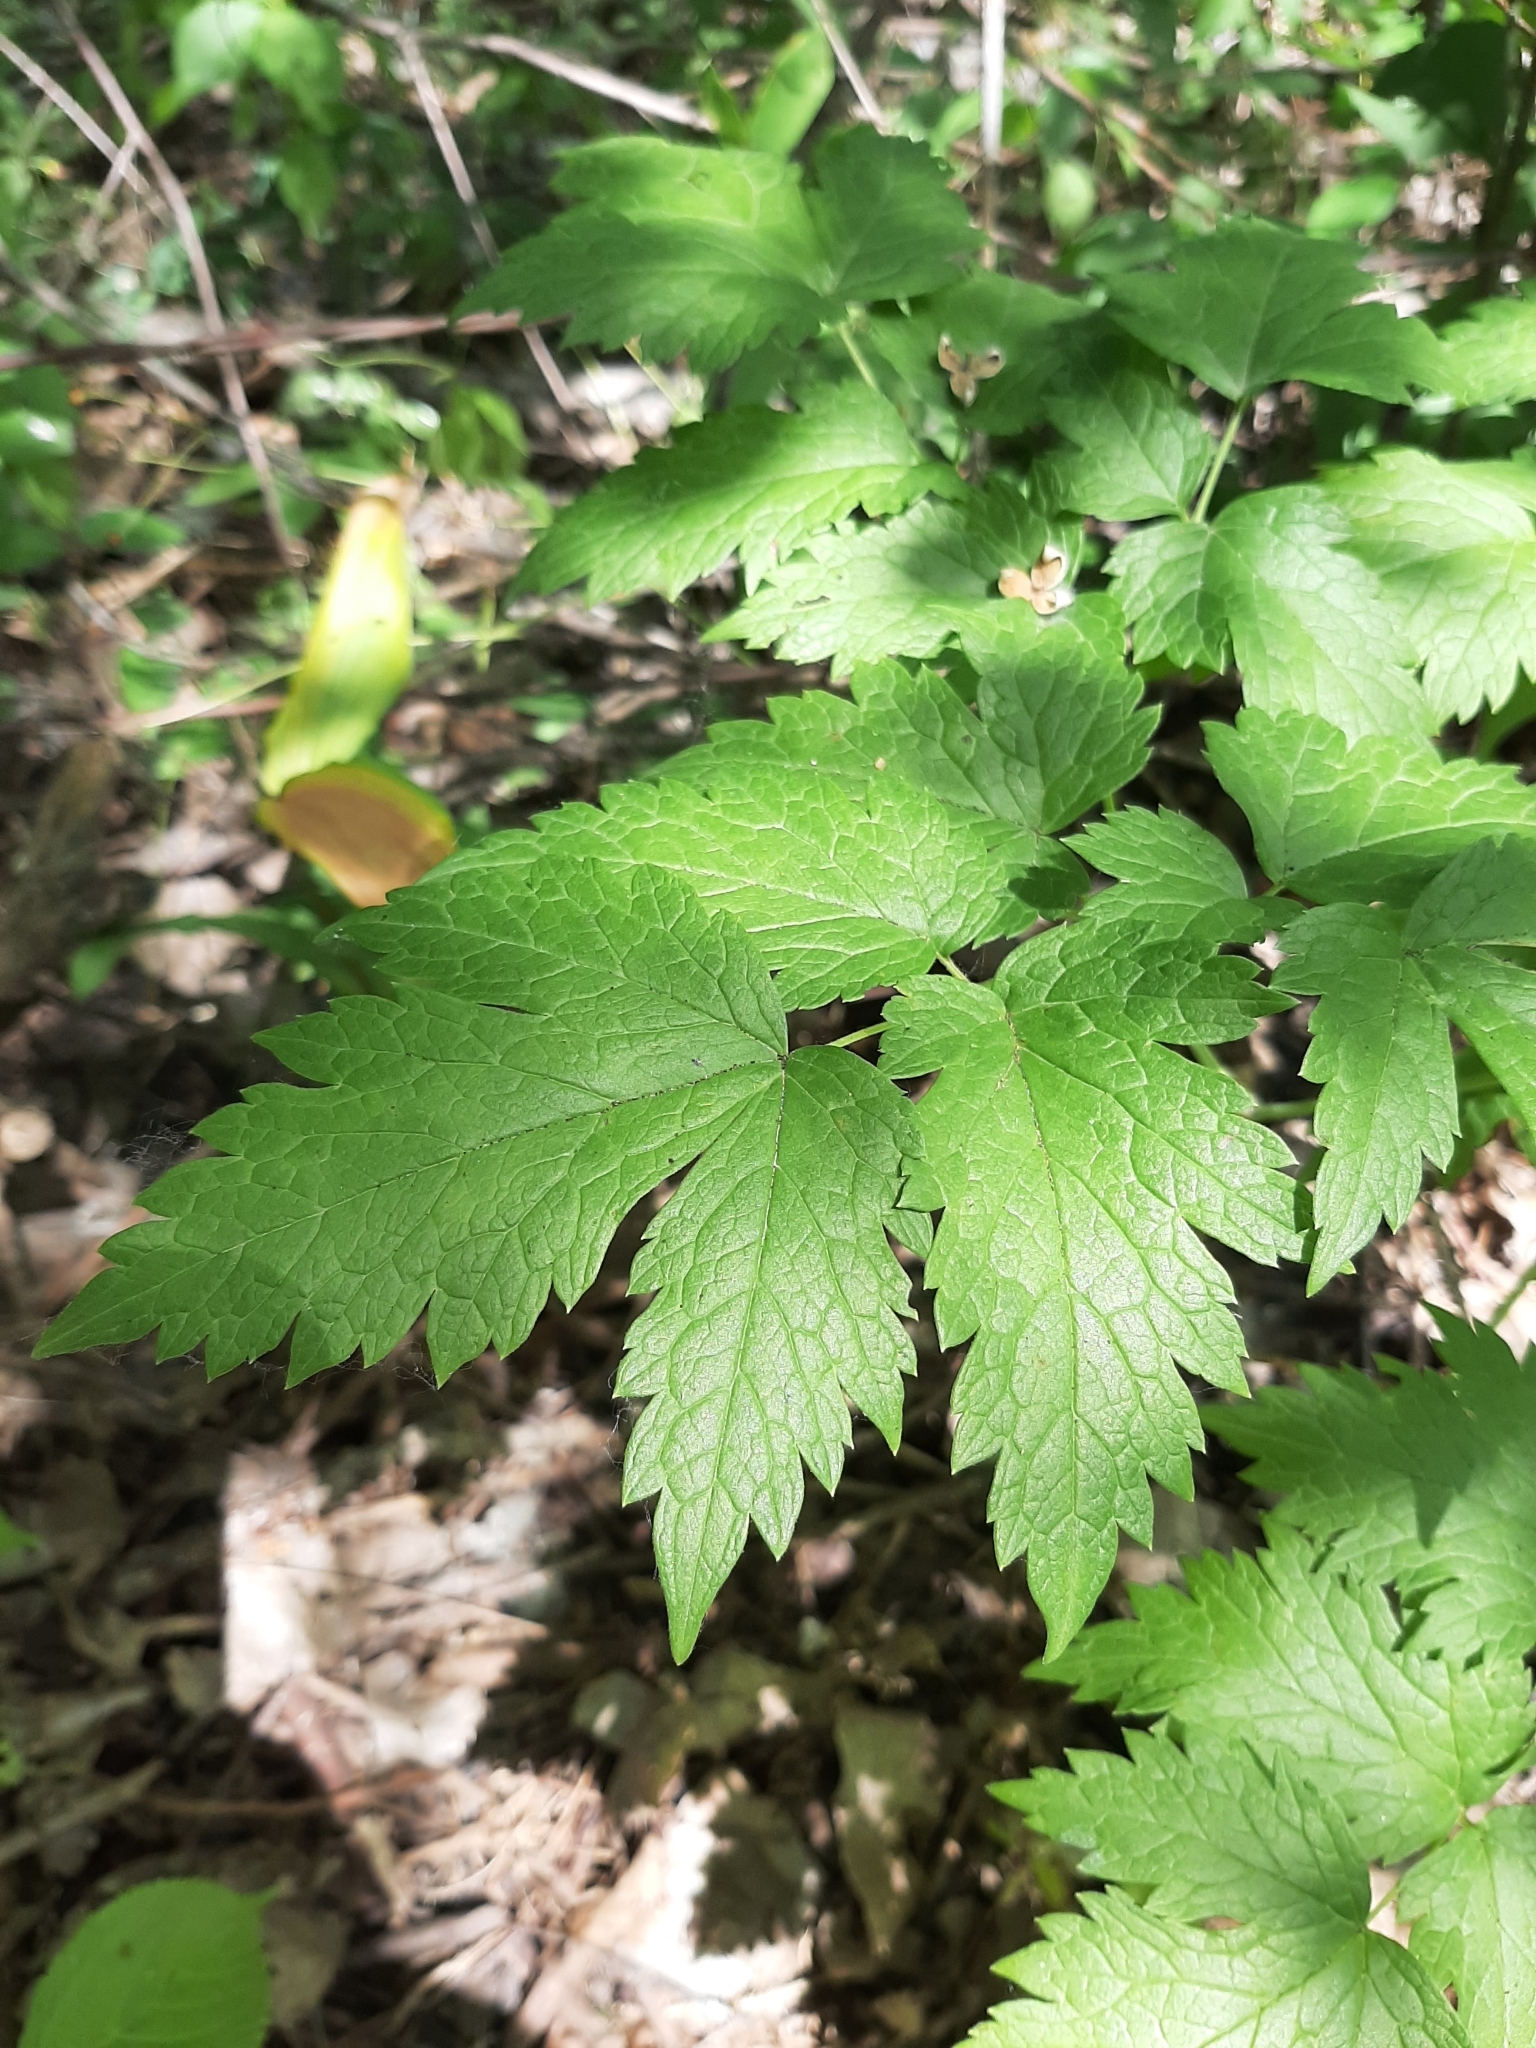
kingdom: Plantae
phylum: Tracheophyta
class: Magnoliopsida
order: Ranunculales
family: Ranunculaceae
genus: Actaea
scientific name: Actaea rubra
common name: Red baneberry
